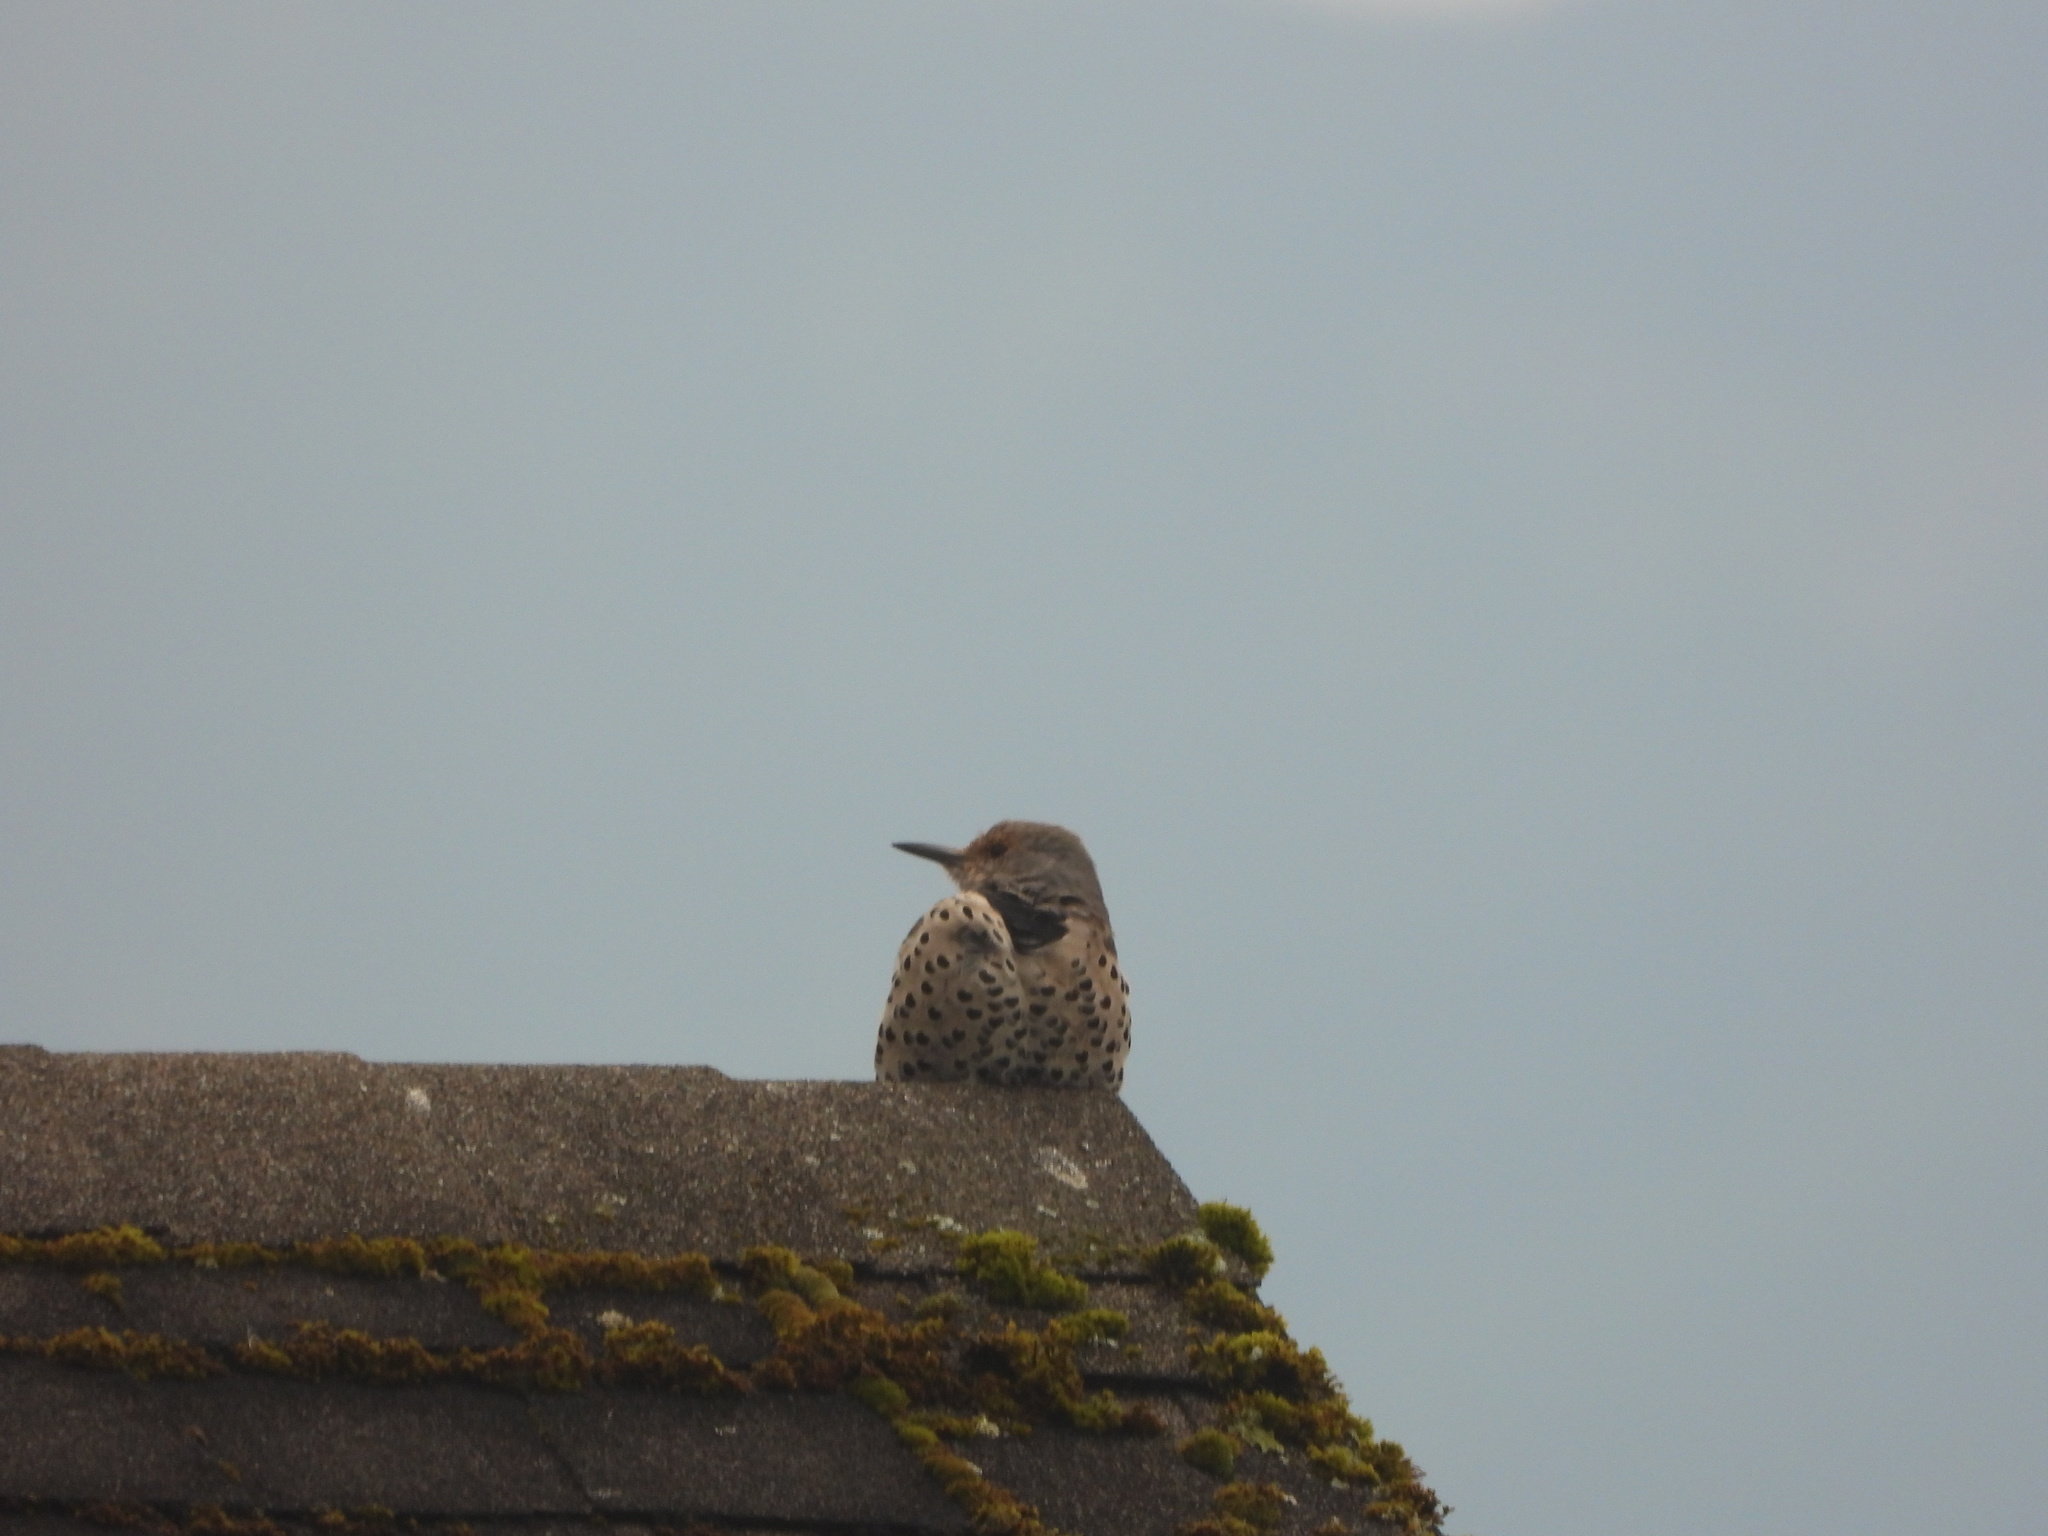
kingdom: Animalia
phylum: Chordata
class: Aves
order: Piciformes
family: Picidae
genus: Colaptes
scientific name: Colaptes auratus
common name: Northern flicker
